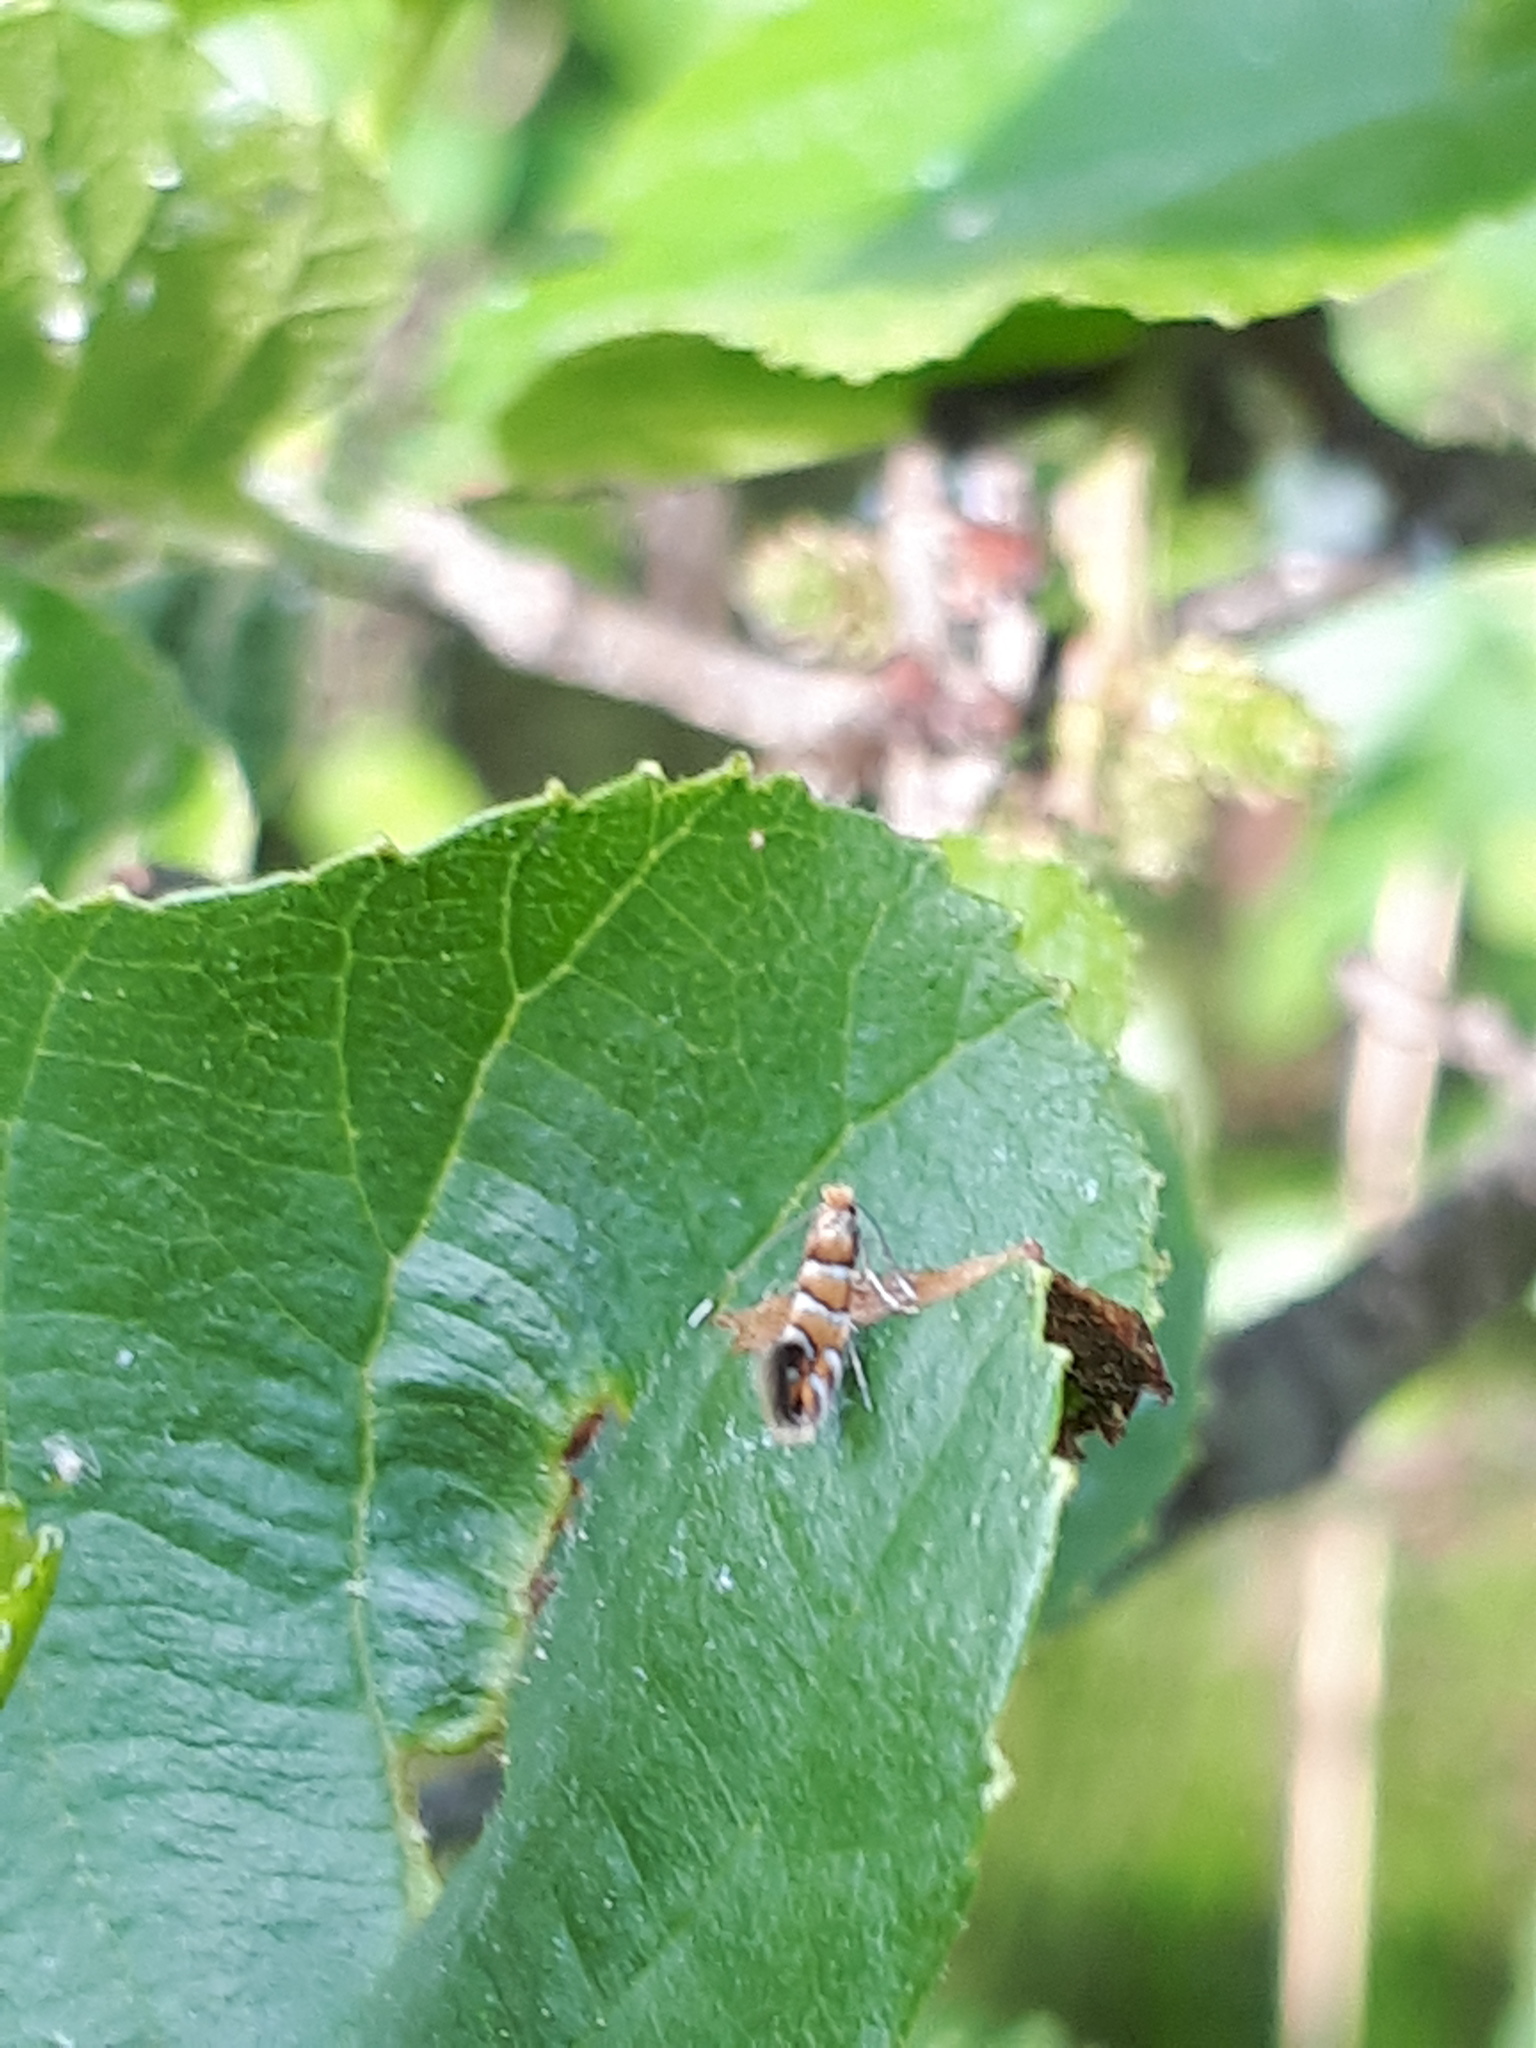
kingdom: Animalia
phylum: Arthropoda
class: Insecta
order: Lepidoptera
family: Gracillariidae
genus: Phyllonorycter
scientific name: Phyllonorycter klemannella
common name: Dark alder midget
